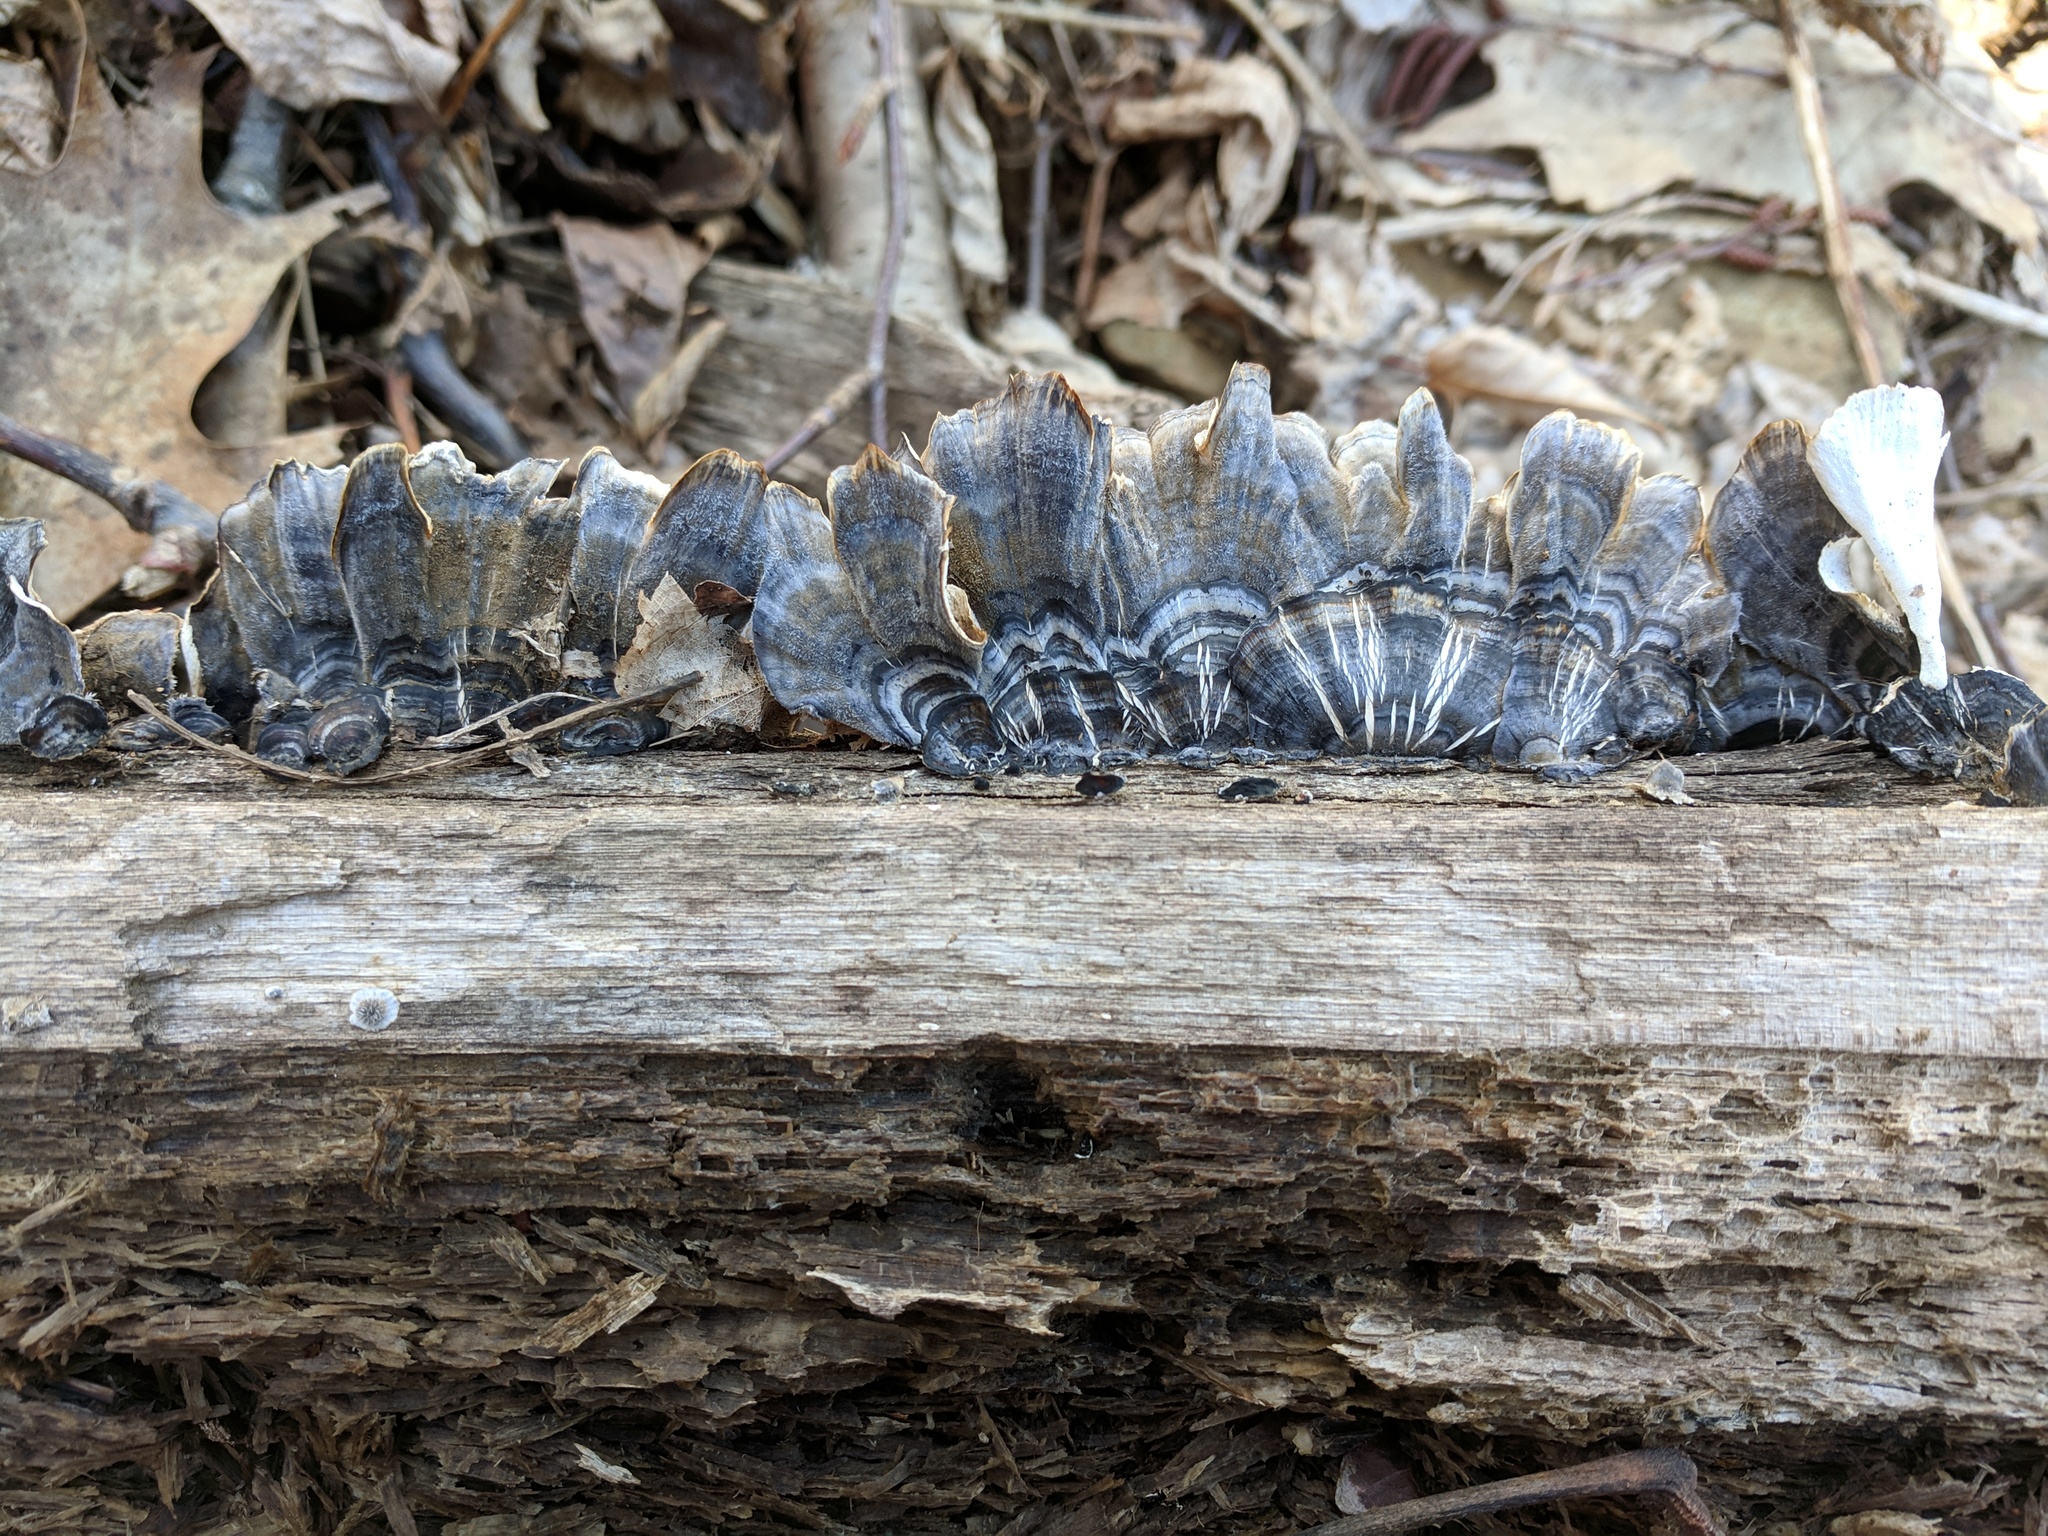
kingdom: Fungi
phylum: Basidiomycota
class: Agaricomycetes
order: Polyporales
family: Polyporaceae
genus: Trametes
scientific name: Trametes versicolor
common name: Turkeytail
